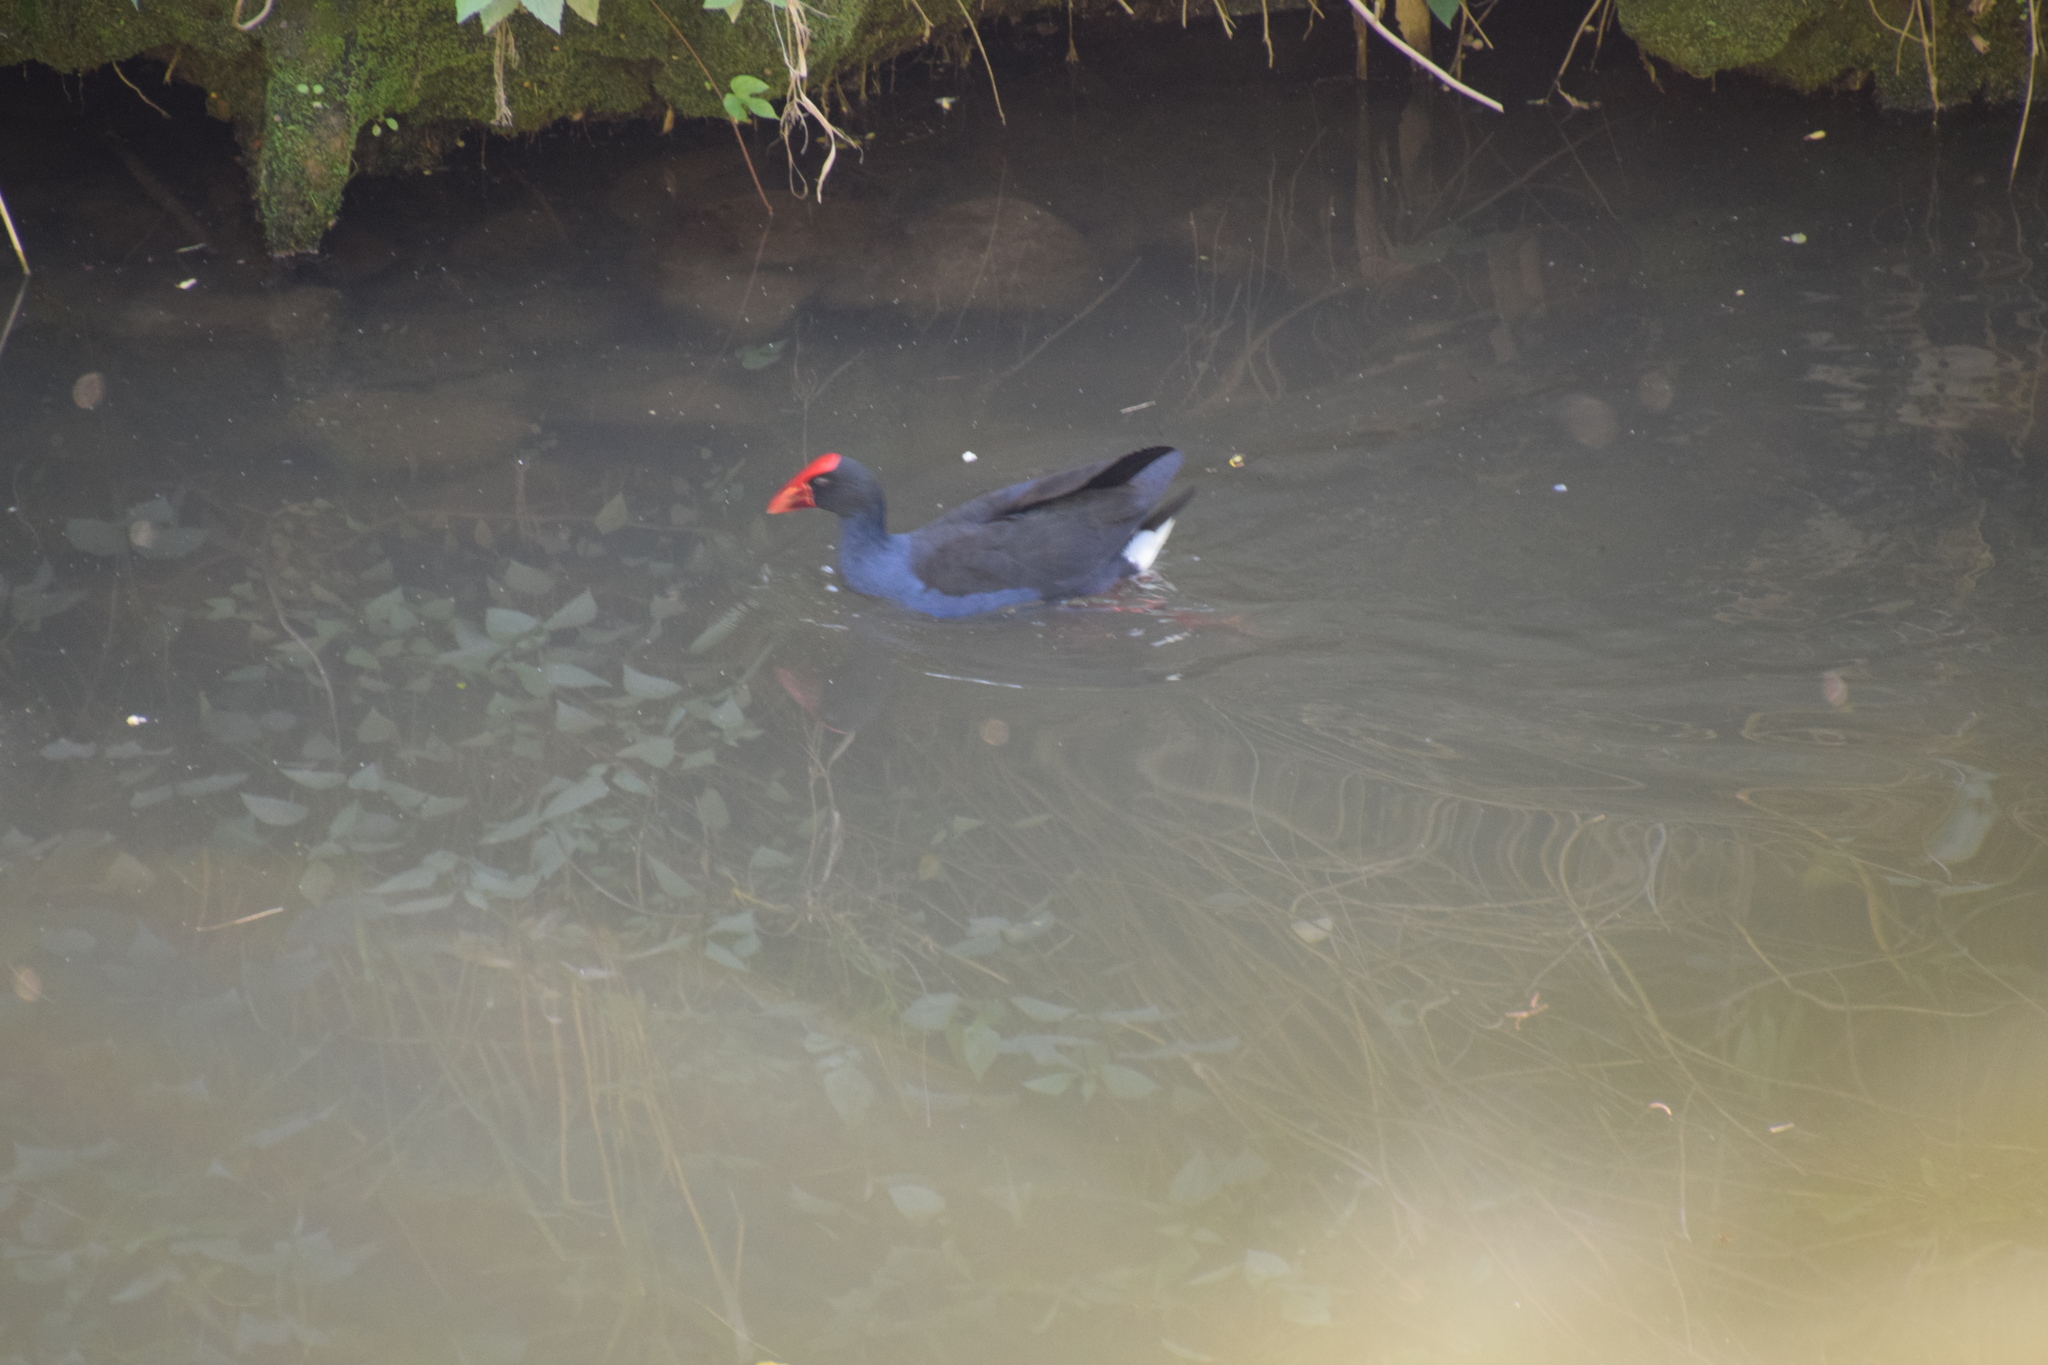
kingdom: Animalia
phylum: Chordata
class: Aves
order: Gruiformes
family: Rallidae
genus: Porphyrio
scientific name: Porphyrio melanotus
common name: Australasian swamphen
